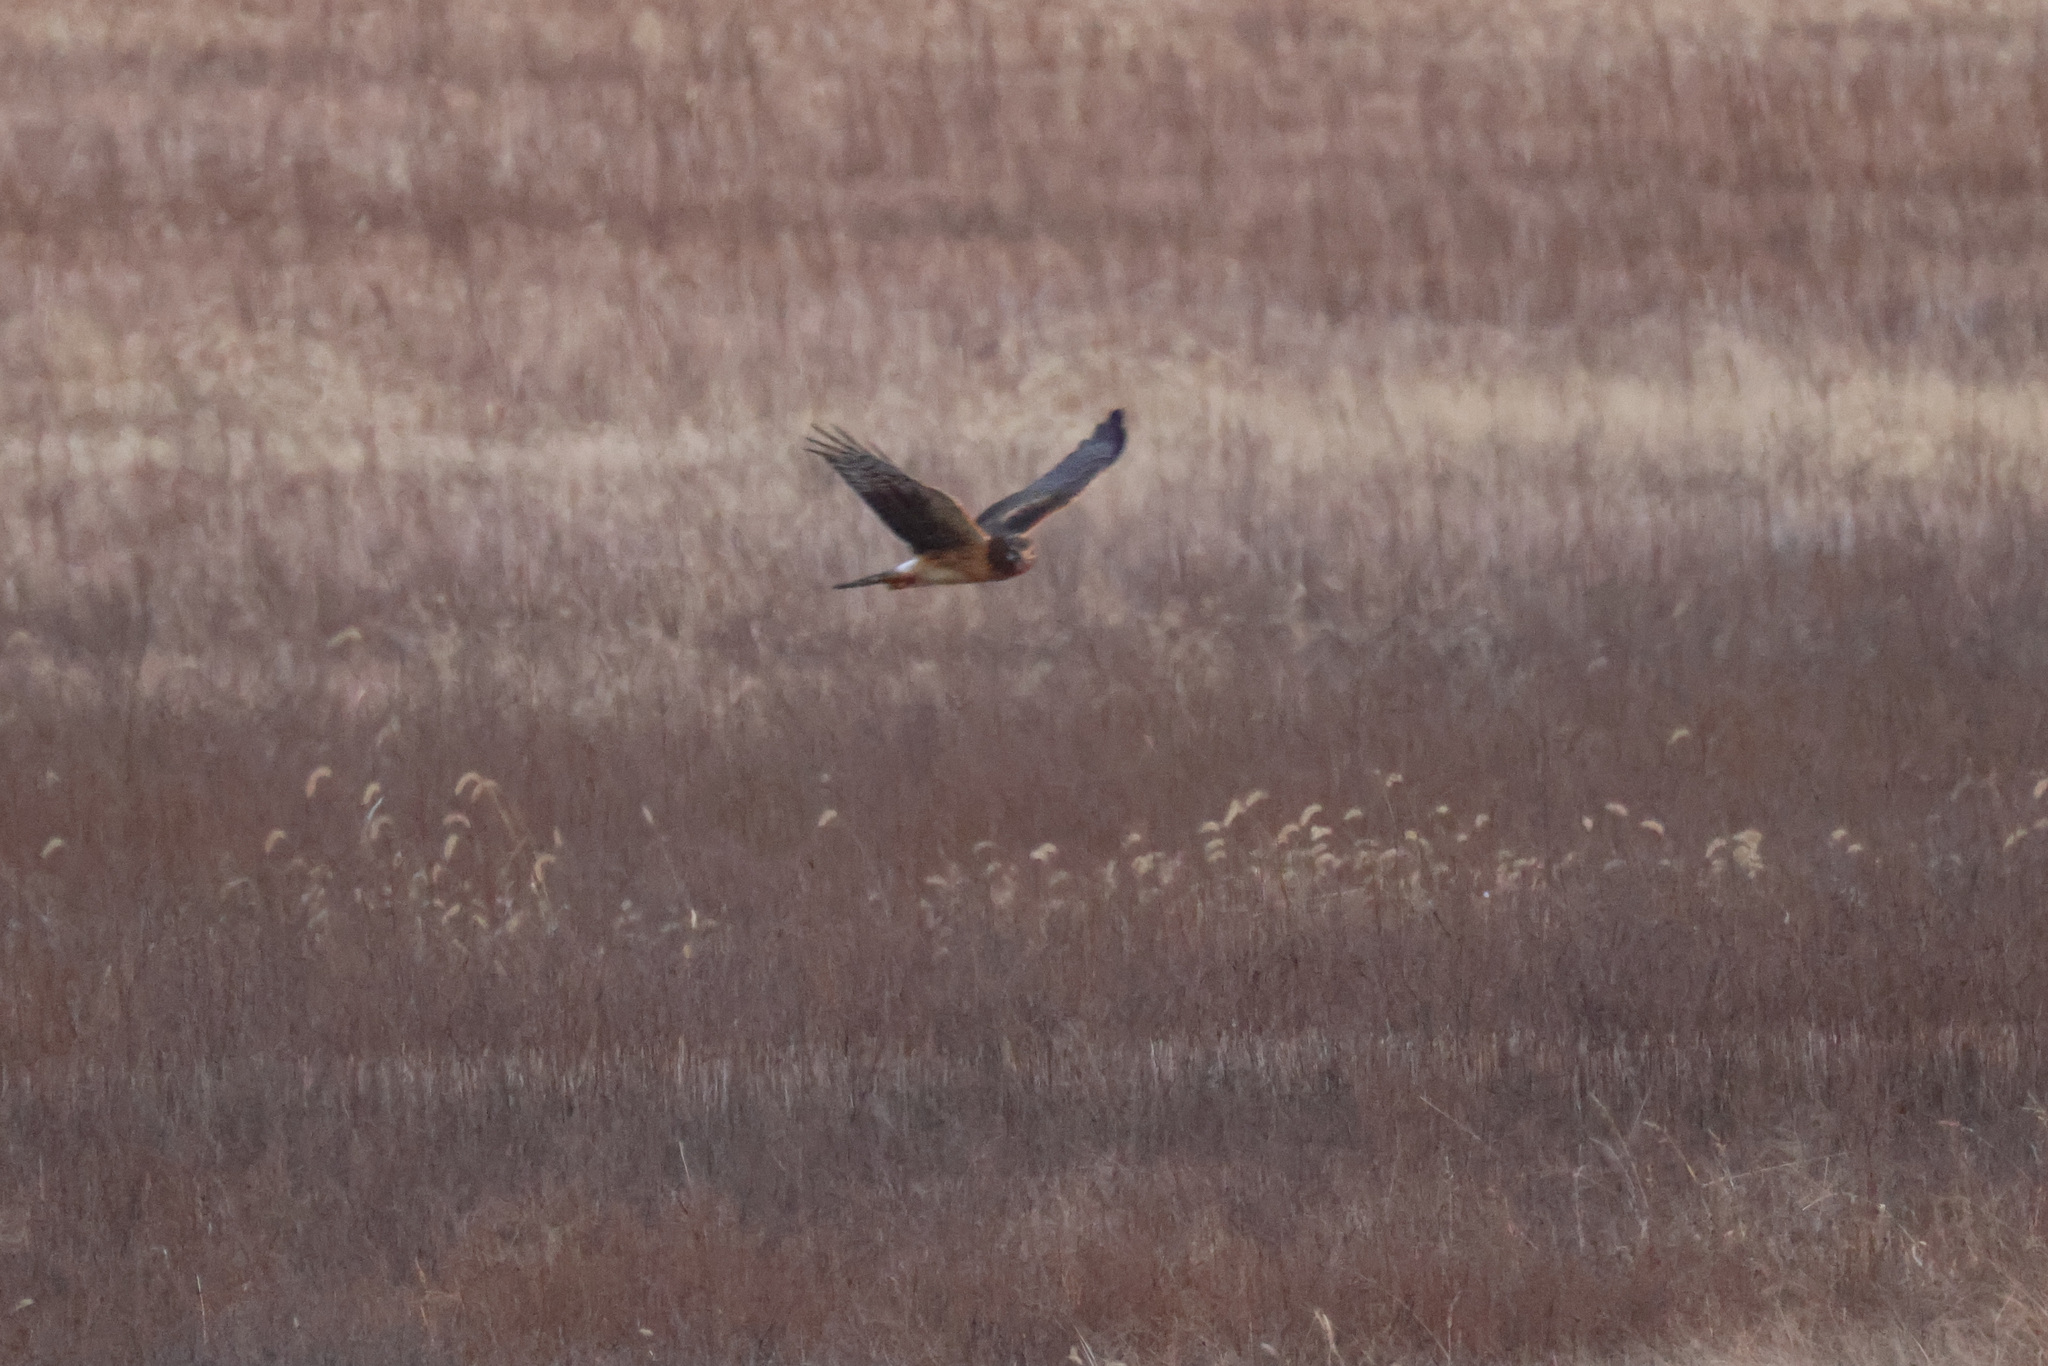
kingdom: Animalia
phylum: Chordata
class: Aves
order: Accipitriformes
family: Accipitridae
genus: Circus
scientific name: Circus cyaneus
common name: Hen harrier
